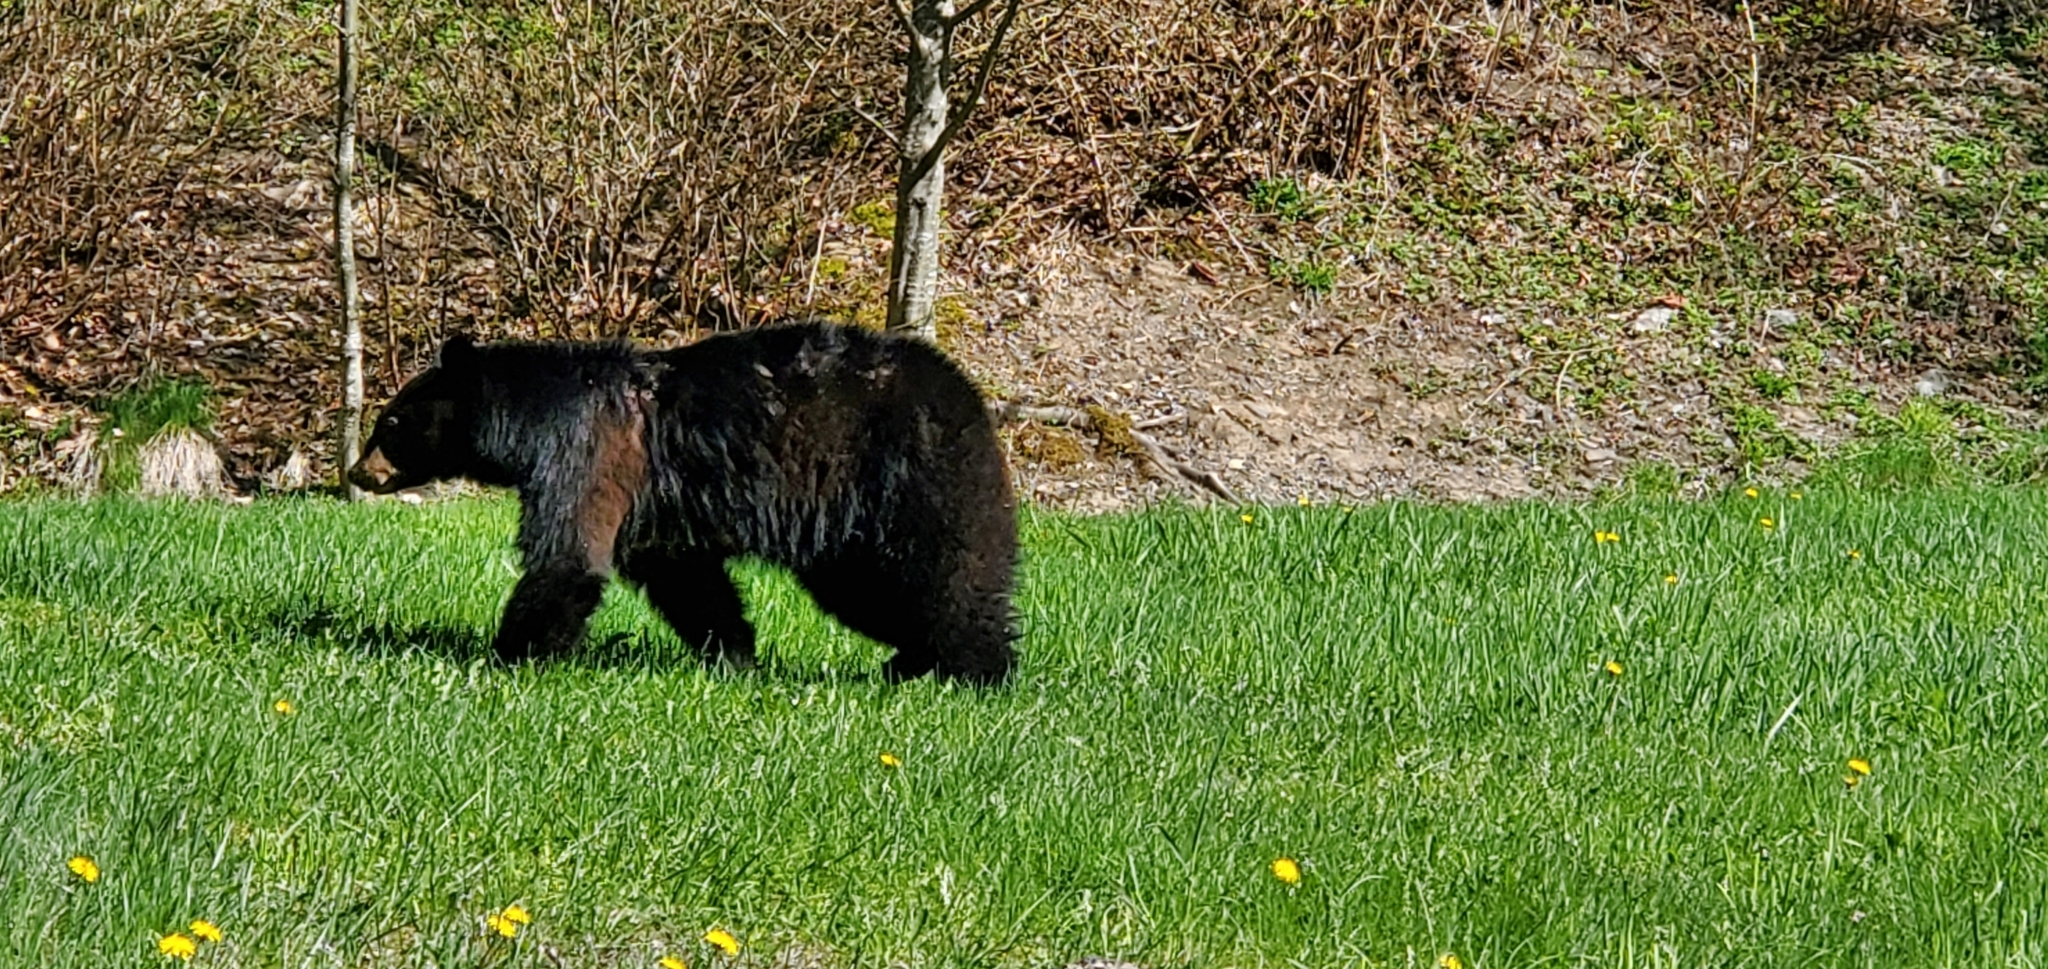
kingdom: Animalia
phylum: Chordata
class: Mammalia
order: Carnivora
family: Ursidae
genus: Ursus
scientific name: Ursus americanus
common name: American black bear
